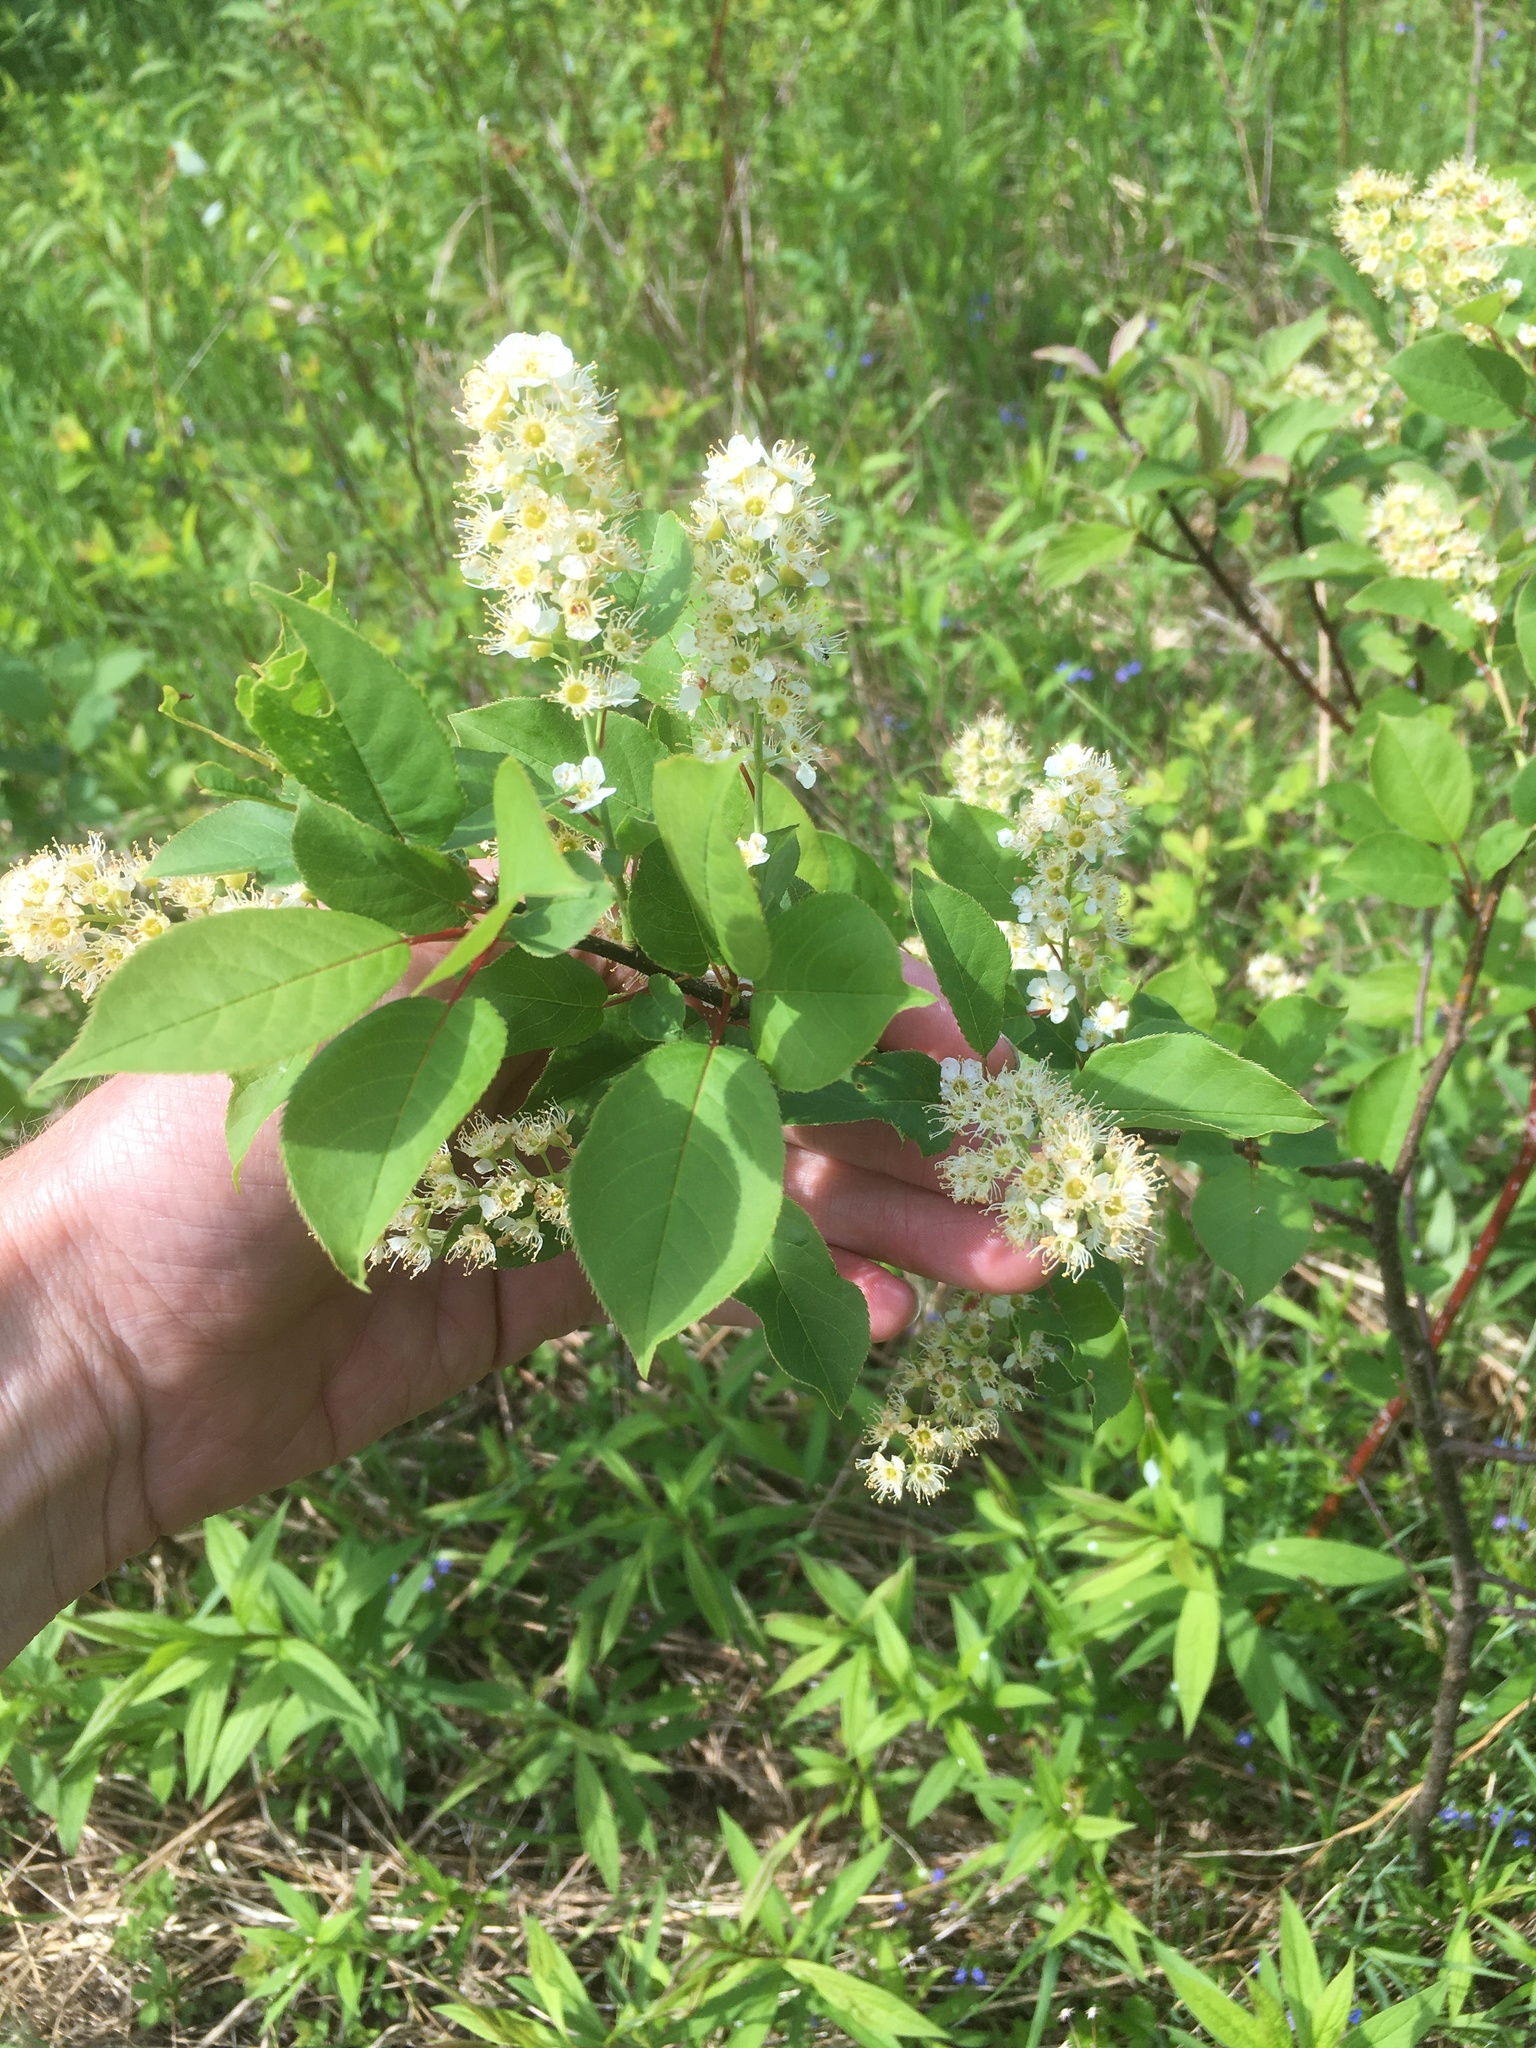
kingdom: Plantae
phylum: Tracheophyta
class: Magnoliopsida
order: Rosales
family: Rosaceae
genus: Prunus
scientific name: Prunus virginiana
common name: Chokecherry
